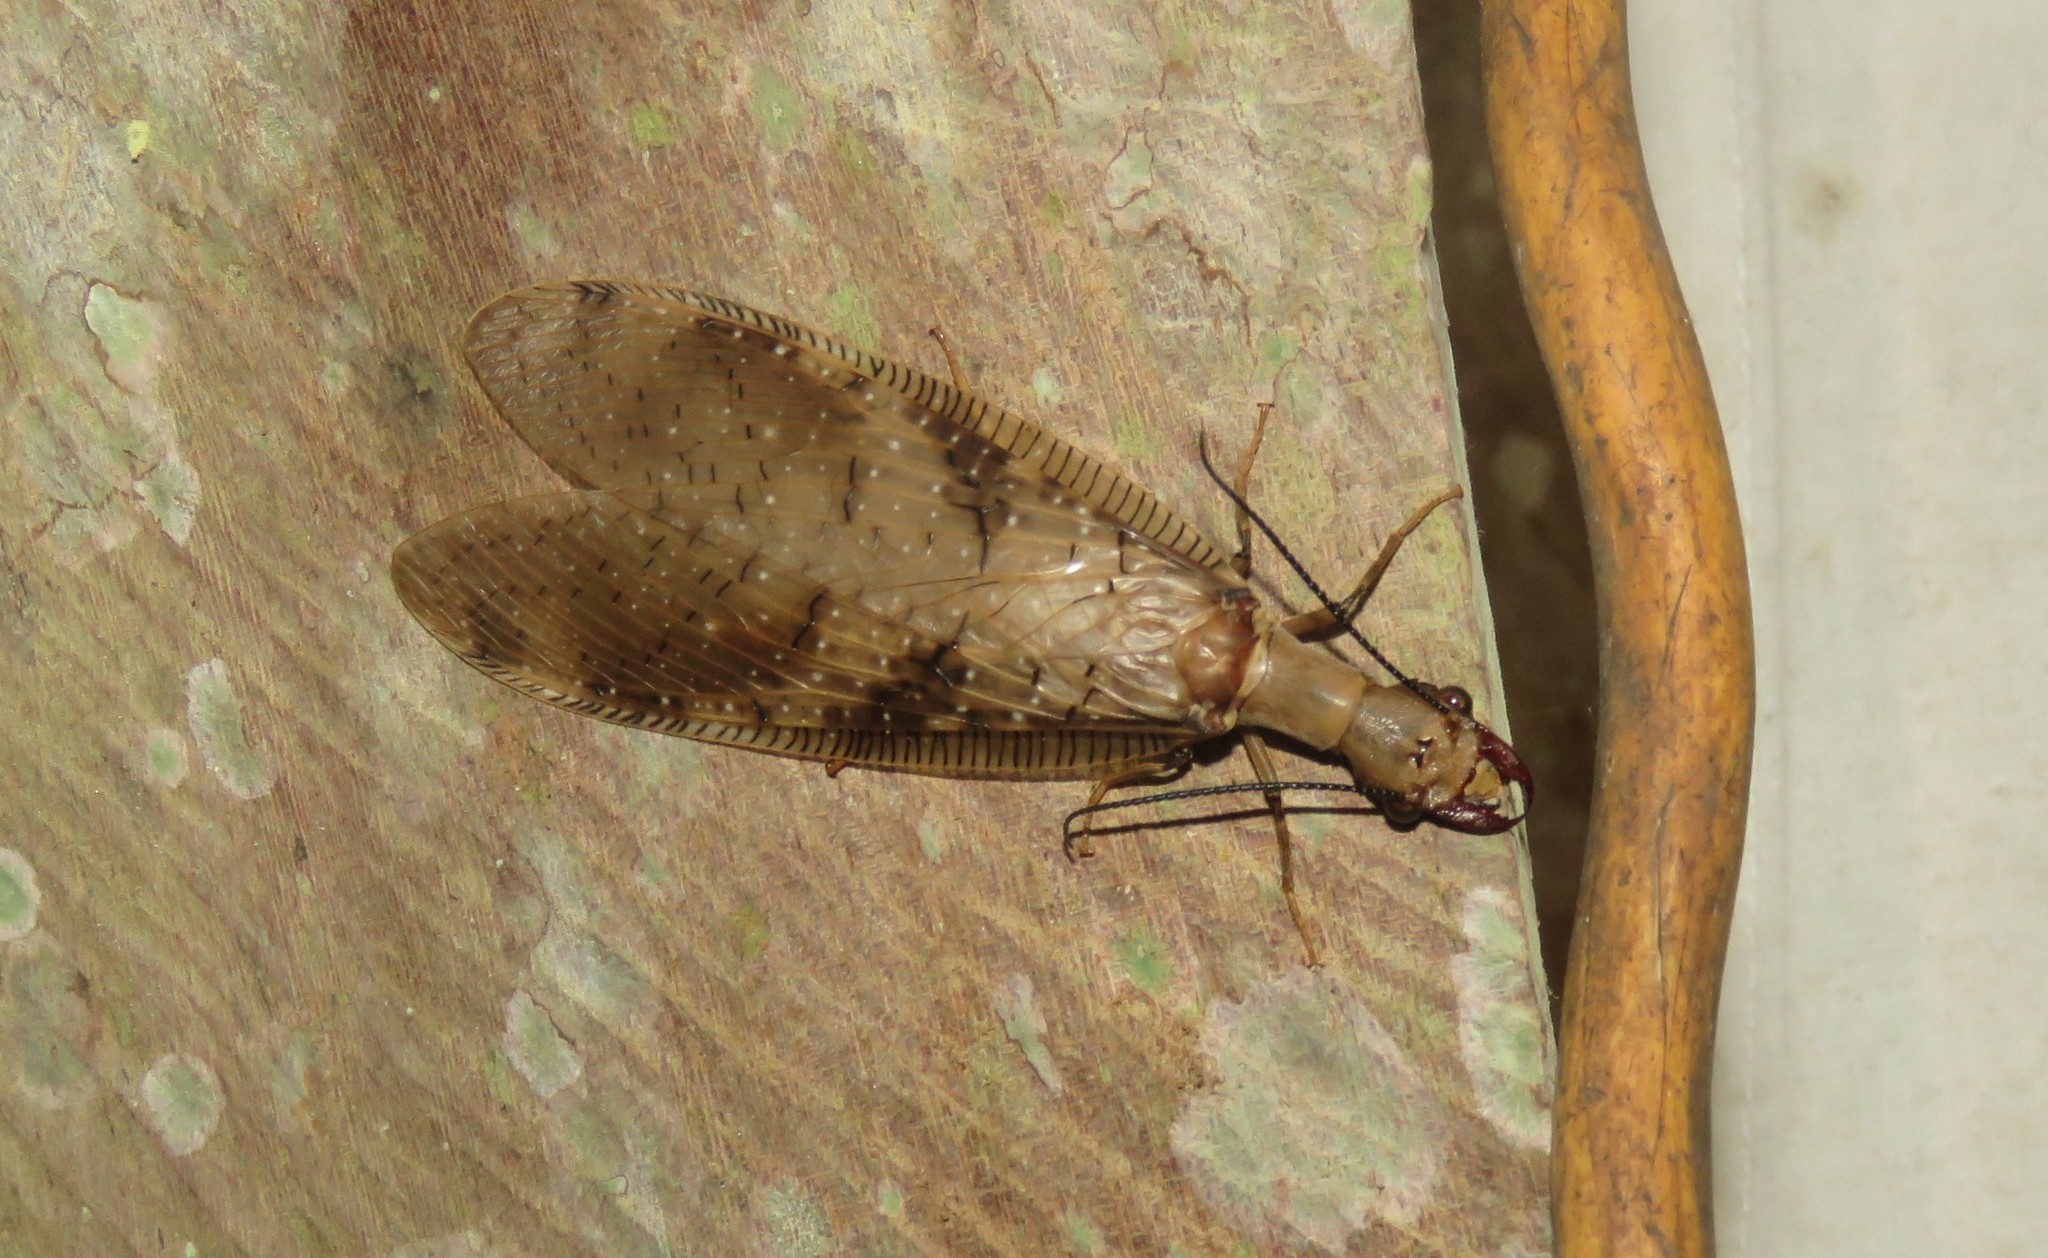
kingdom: Animalia
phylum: Arthropoda
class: Insecta
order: Megaloptera
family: Corydalidae
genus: Corydalus
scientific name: Corydalus flavicornis
